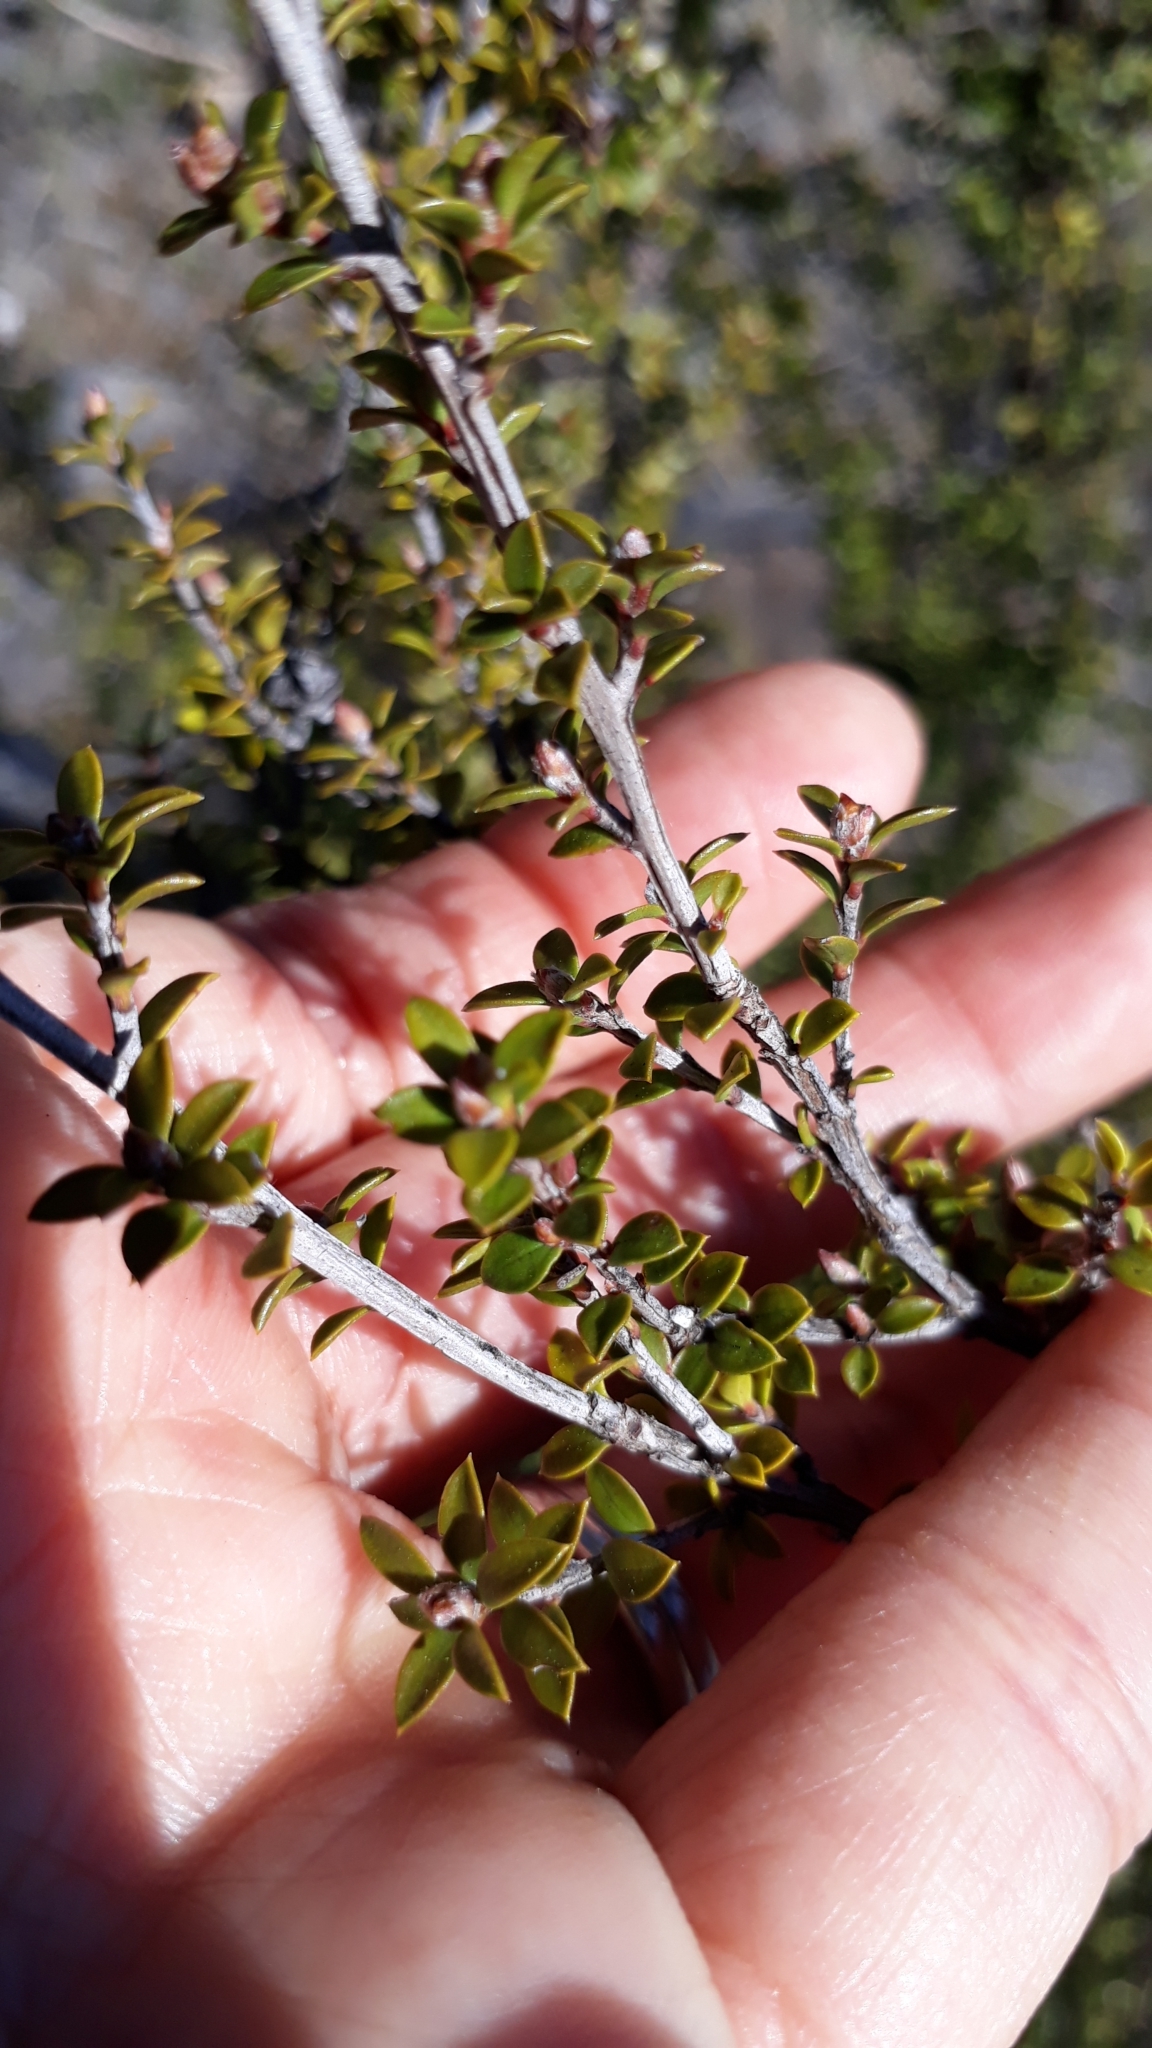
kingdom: Plantae
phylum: Tracheophyta
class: Magnoliopsida
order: Myrtales
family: Myrtaceae
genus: Leptospermum
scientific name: Leptospermum scoparium
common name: Broom tea-tree
